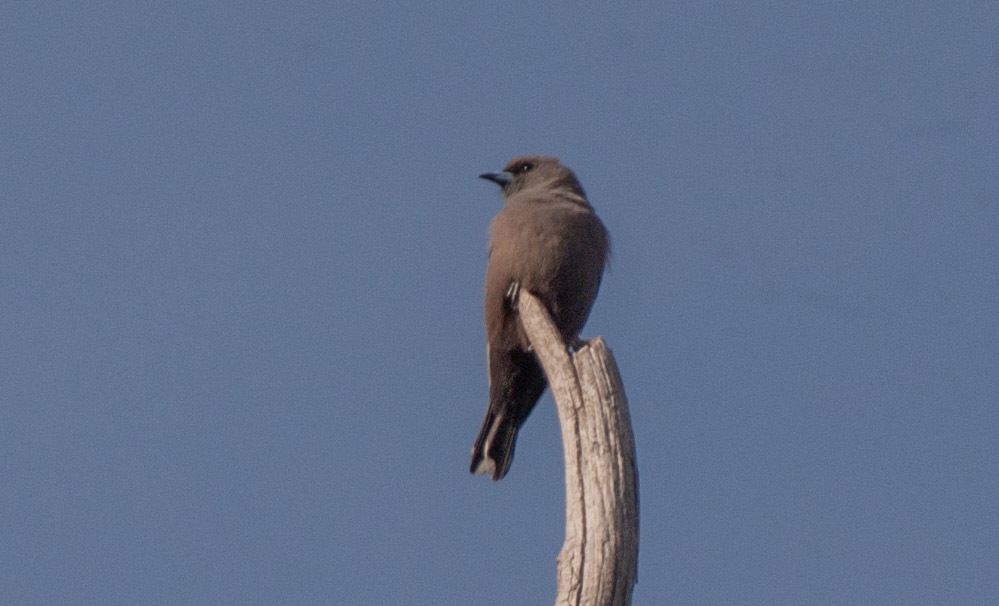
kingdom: Animalia
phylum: Chordata
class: Aves
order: Passeriformes
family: Artamidae
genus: Artamus
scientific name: Artamus cyanopterus
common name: Dusky woodswallow
